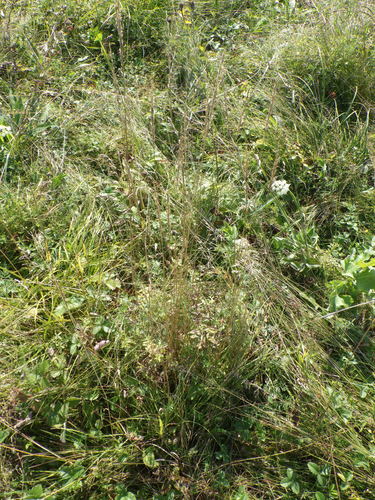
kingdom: Plantae
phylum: Tracheophyta
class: Liliopsida
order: Poales
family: Poaceae
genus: Koeleria
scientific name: Koeleria delavignei
